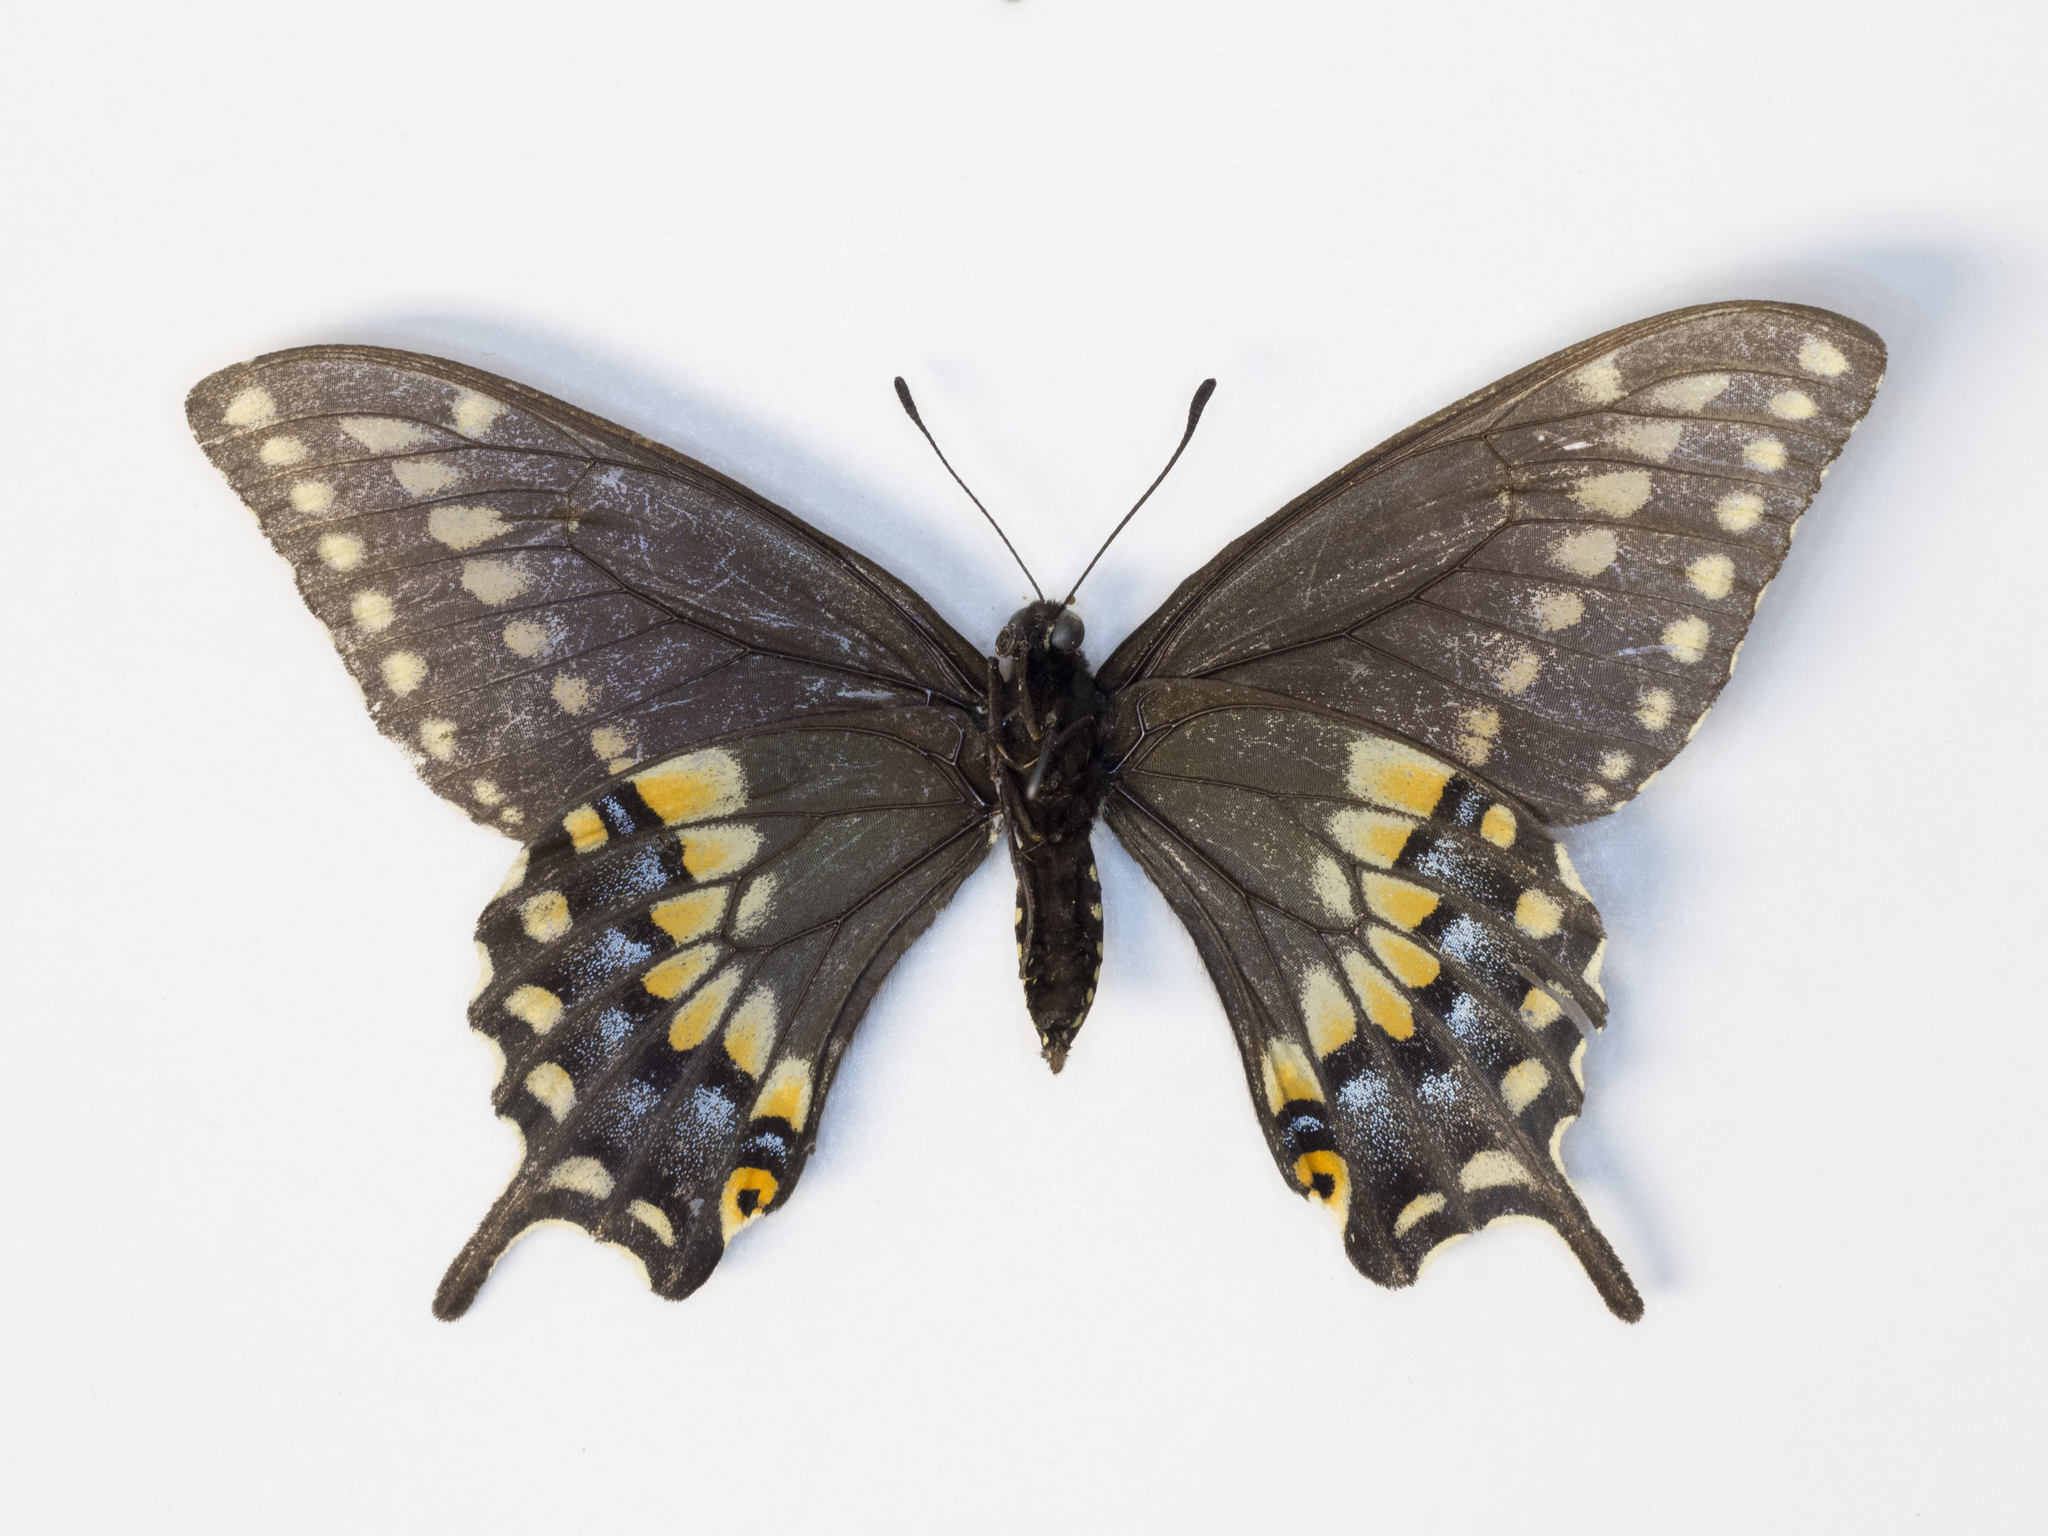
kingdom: Animalia
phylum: Arthropoda
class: Insecta
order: Lepidoptera
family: Papilionidae
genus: Papilio
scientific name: Papilio polyxenes
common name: Black swallowtail
